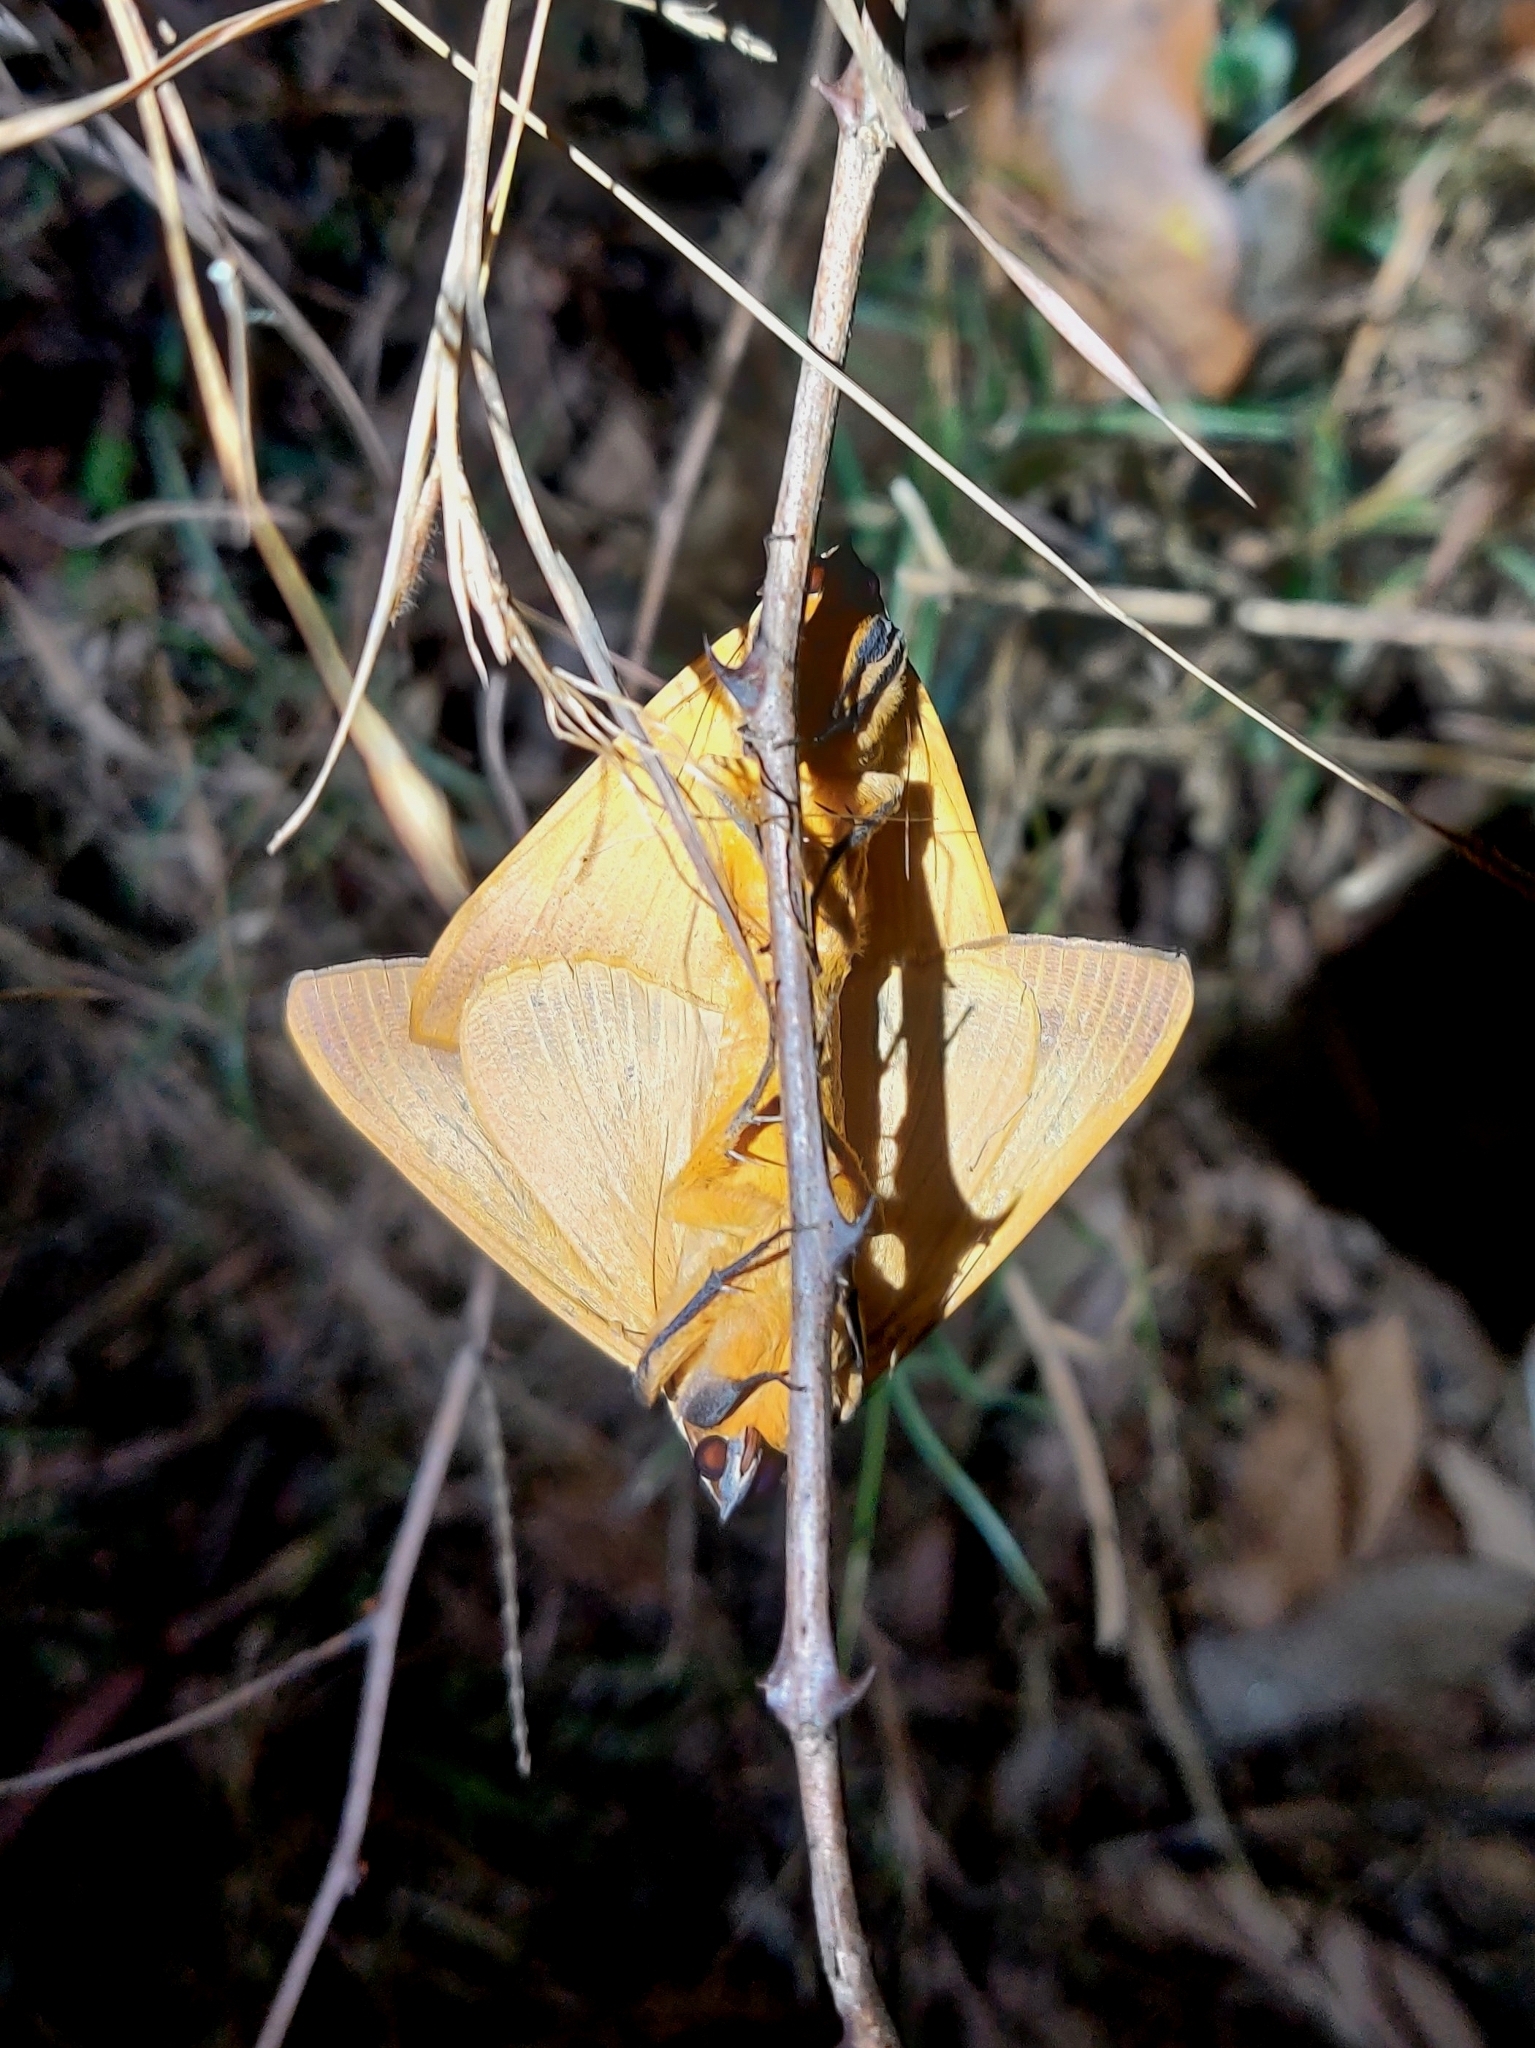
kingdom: Animalia
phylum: Arthropoda
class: Insecta
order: Lepidoptera
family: Erebidae
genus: Ophiusa
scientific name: Ophiusa disjungens
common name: Moth
